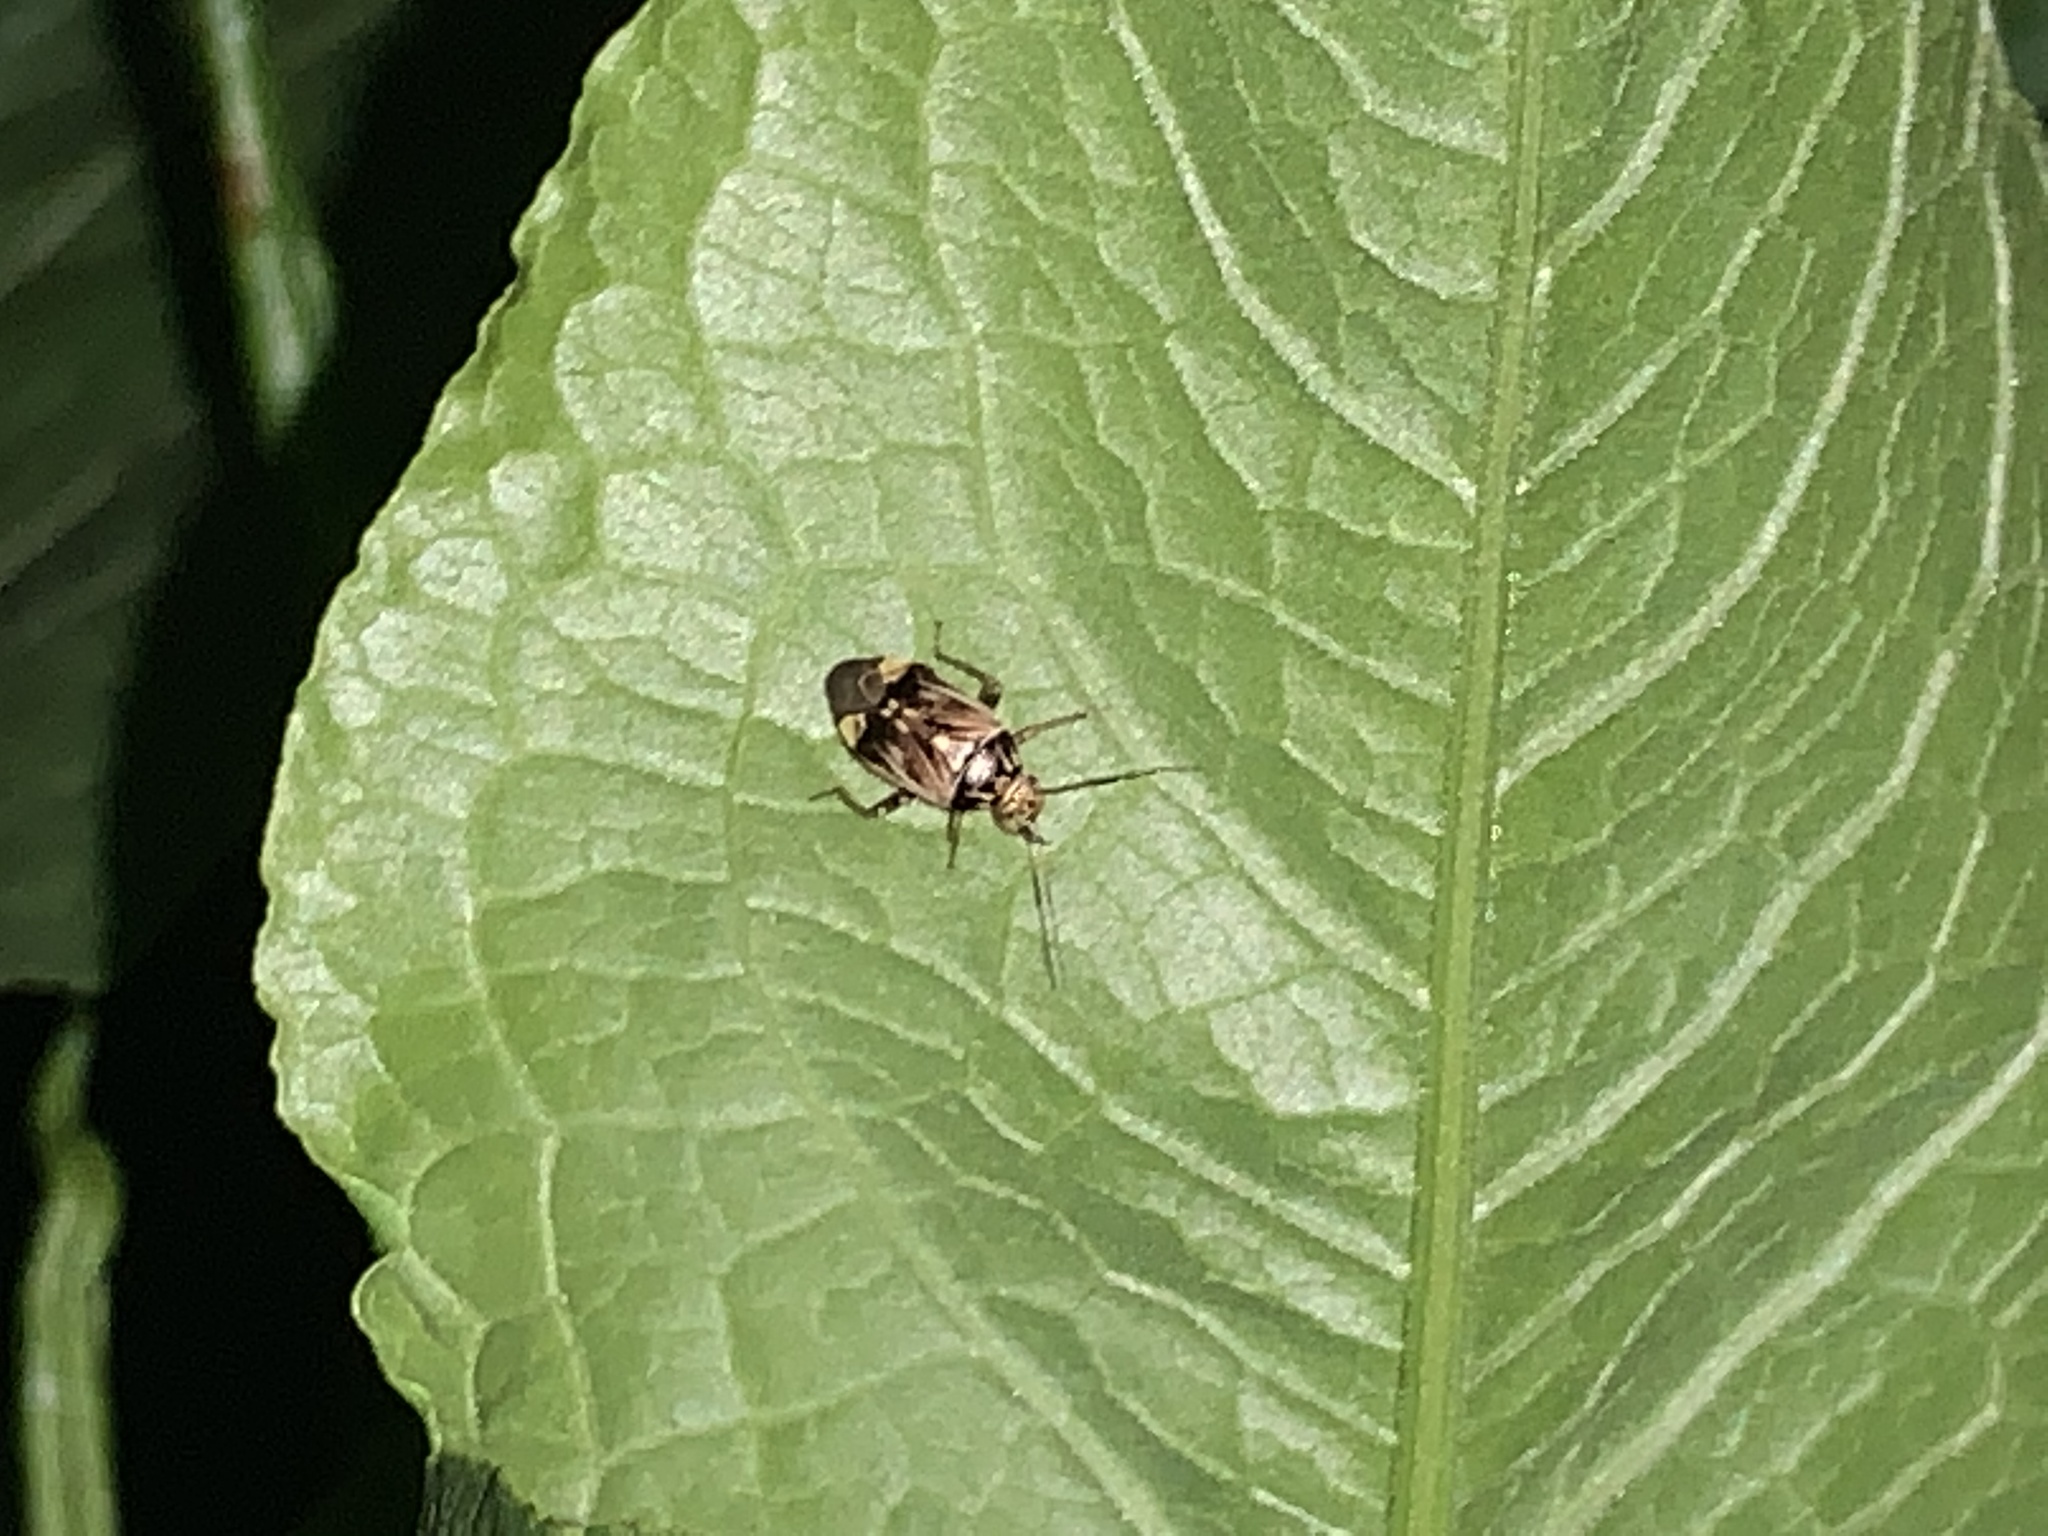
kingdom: Animalia
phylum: Arthropoda
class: Insecta
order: Hemiptera
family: Miridae
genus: Lygus
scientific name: Lygus lineolaris
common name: North american tarnished plant bug
